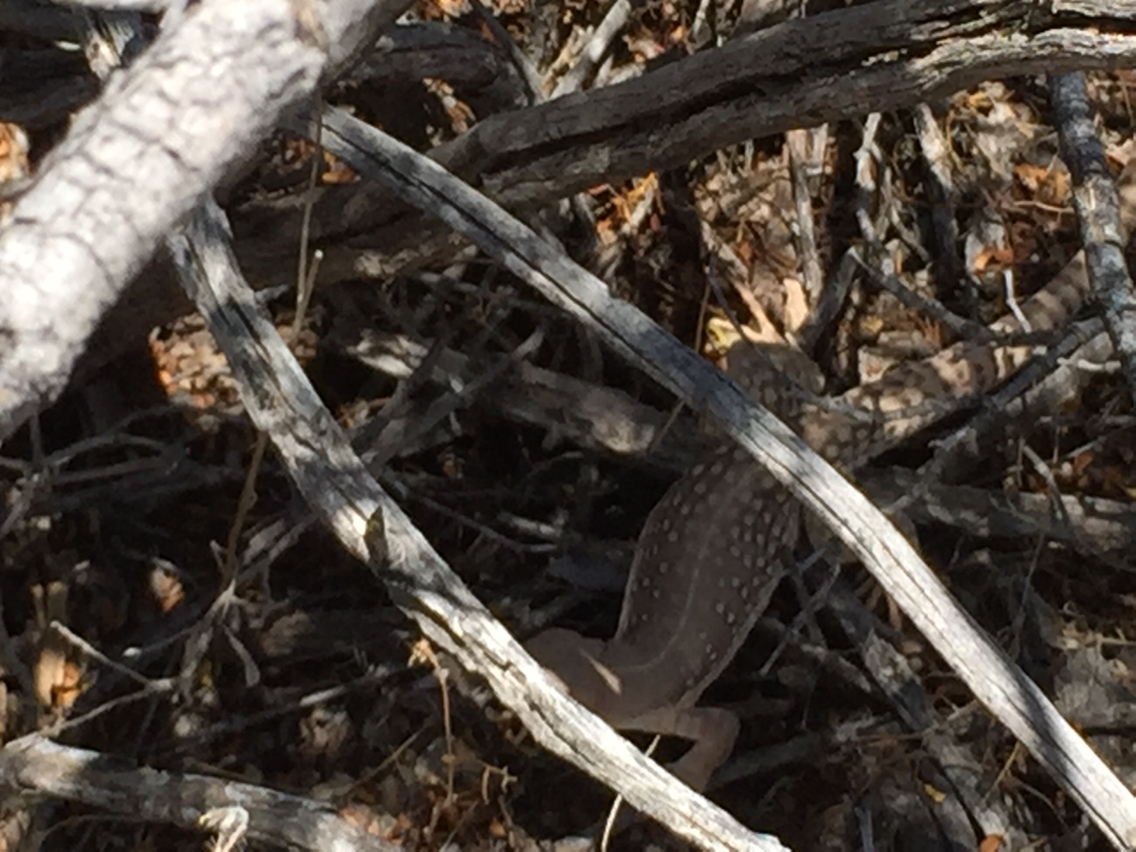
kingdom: Animalia
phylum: Chordata
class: Squamata
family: Iguanidae
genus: Dipsosaurus
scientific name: Dipsosaurus dorsalis
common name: Desert iguana
